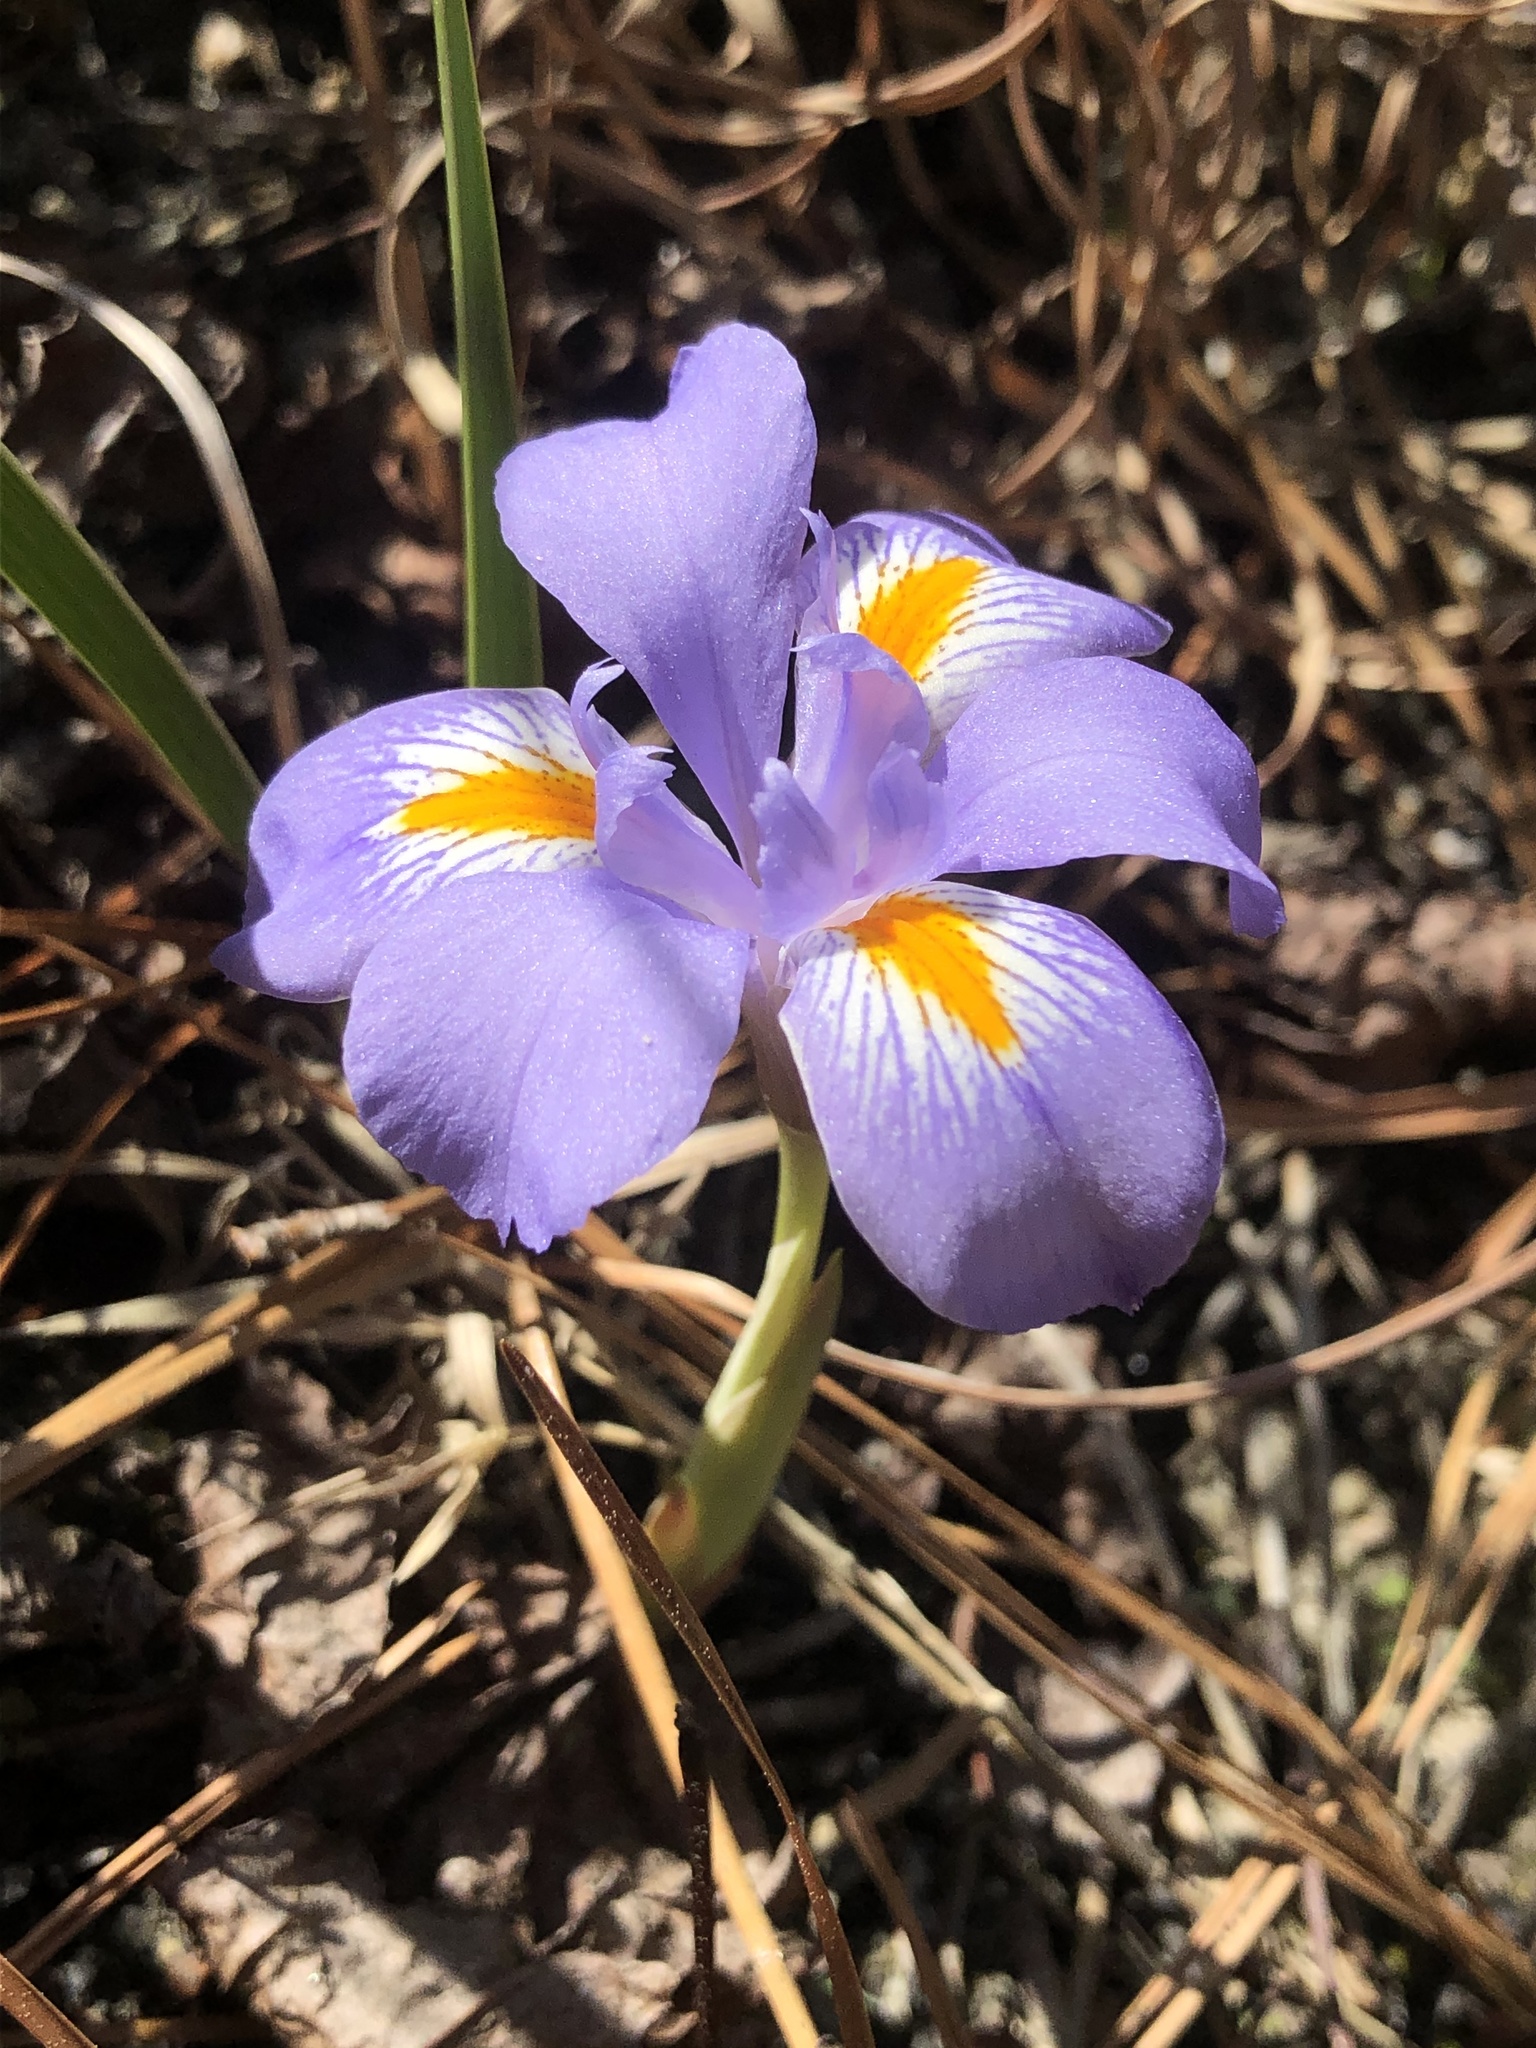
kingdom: Plantae
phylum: Tracheophyta
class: Liliopsida
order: Asparagales
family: Iridaceae
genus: Iris
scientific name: Iris verna
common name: Dwarf iris
